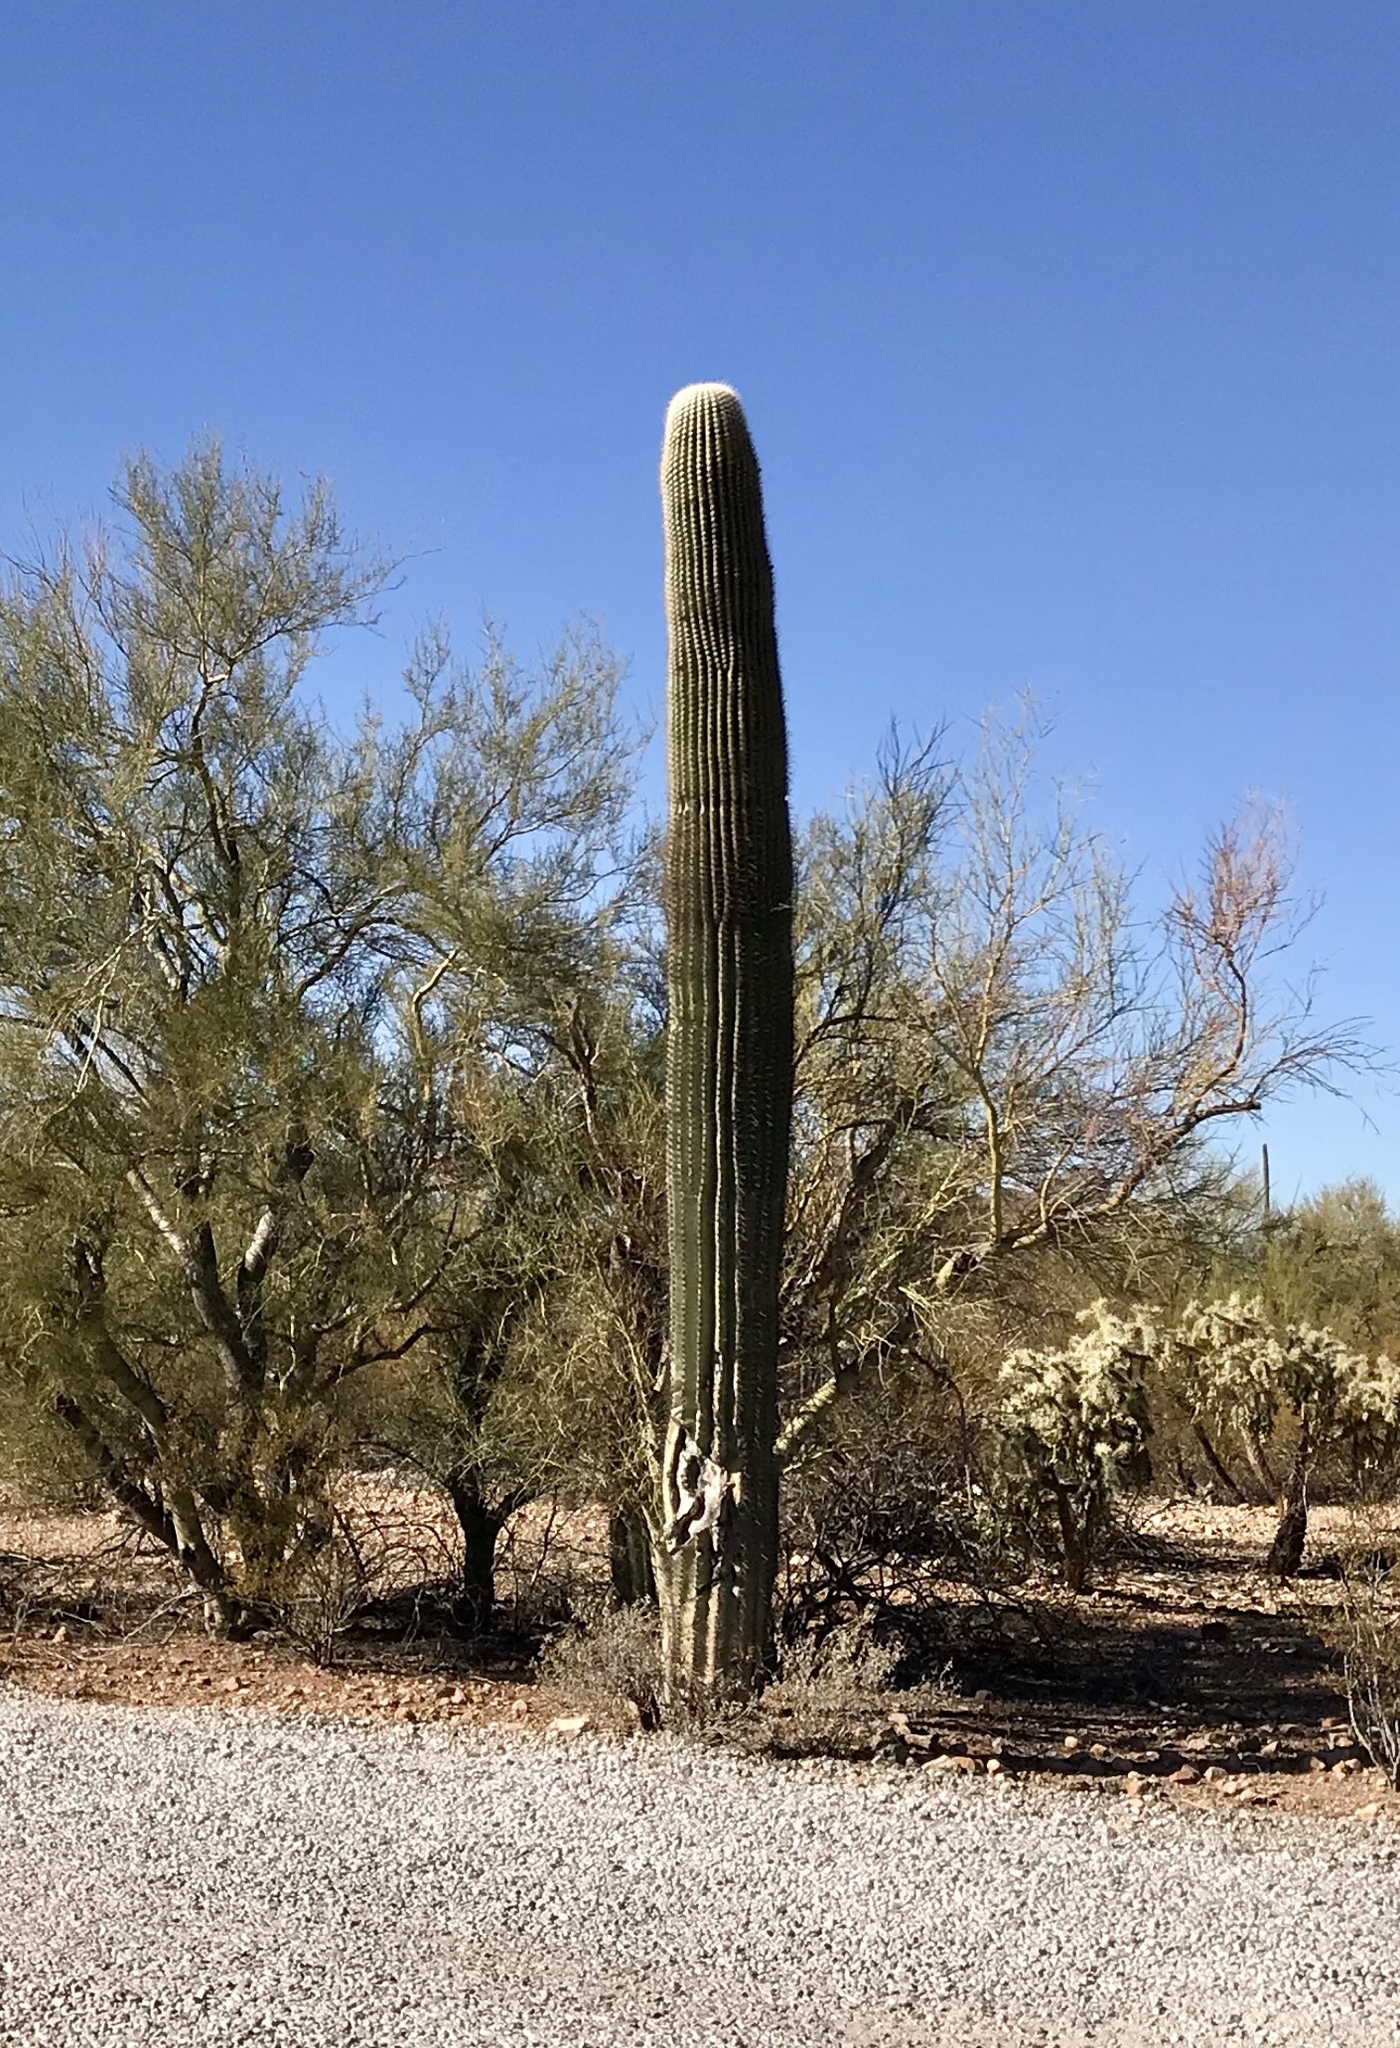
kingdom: Plantae
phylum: Tracheophyta
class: Magnoliopsida
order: Caryophyllales
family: Cactaceae
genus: Carnegiea
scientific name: Carnegiea gigantea
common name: Saguaro
